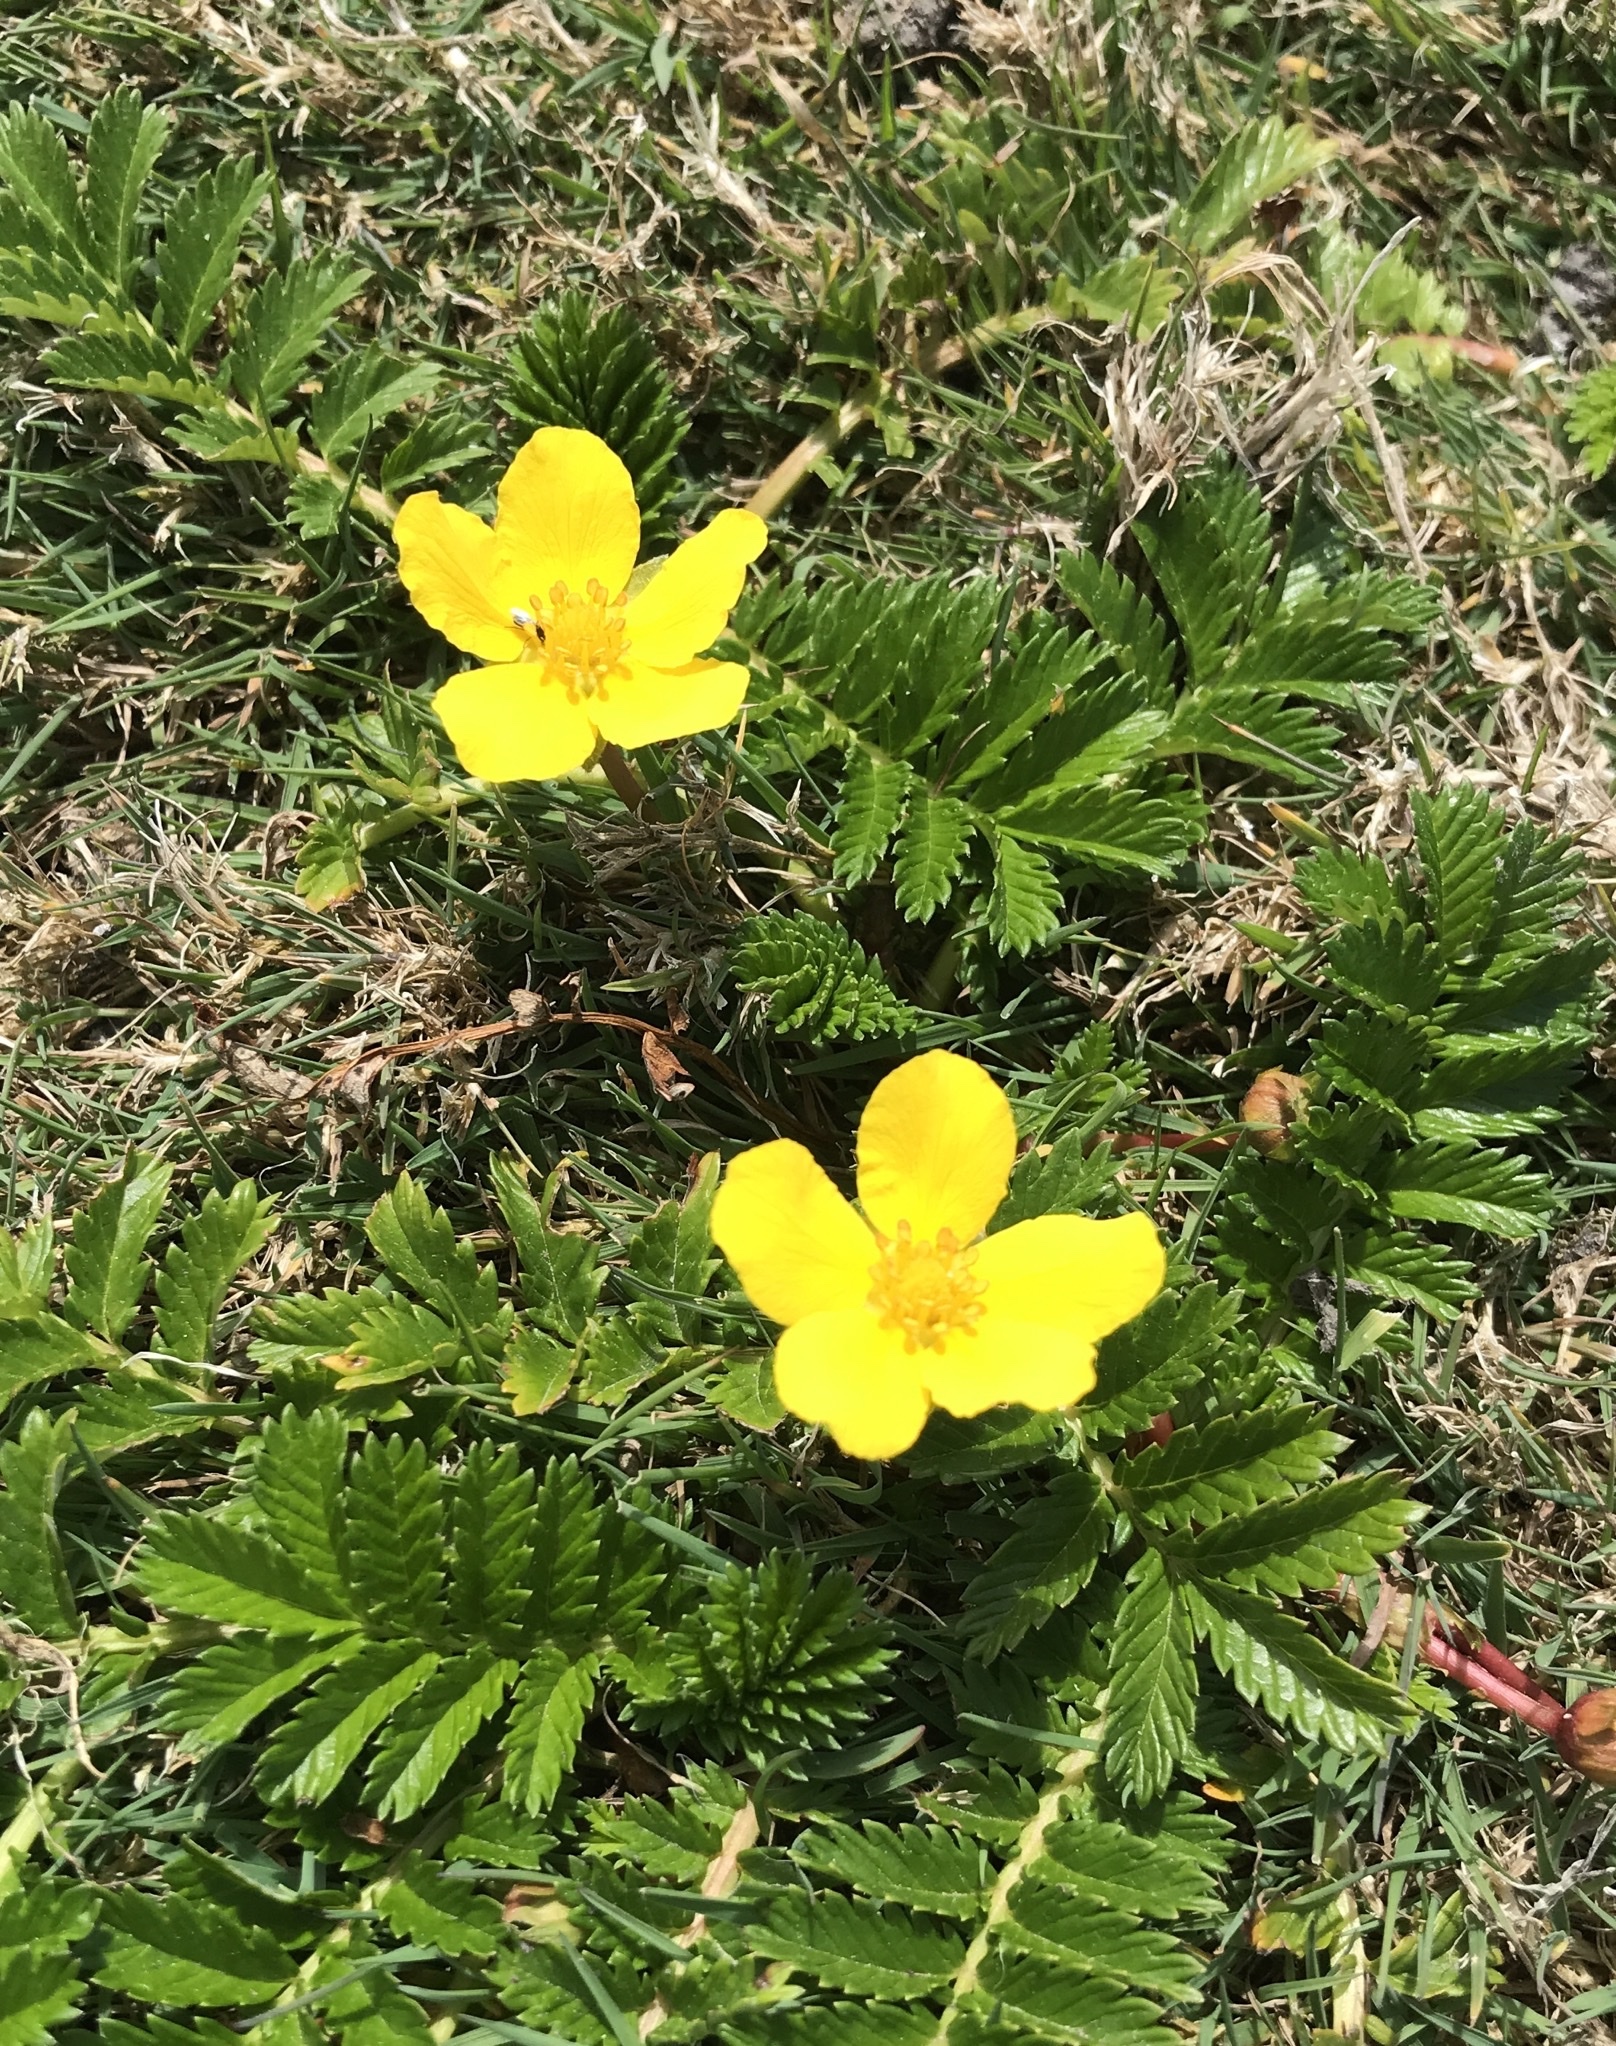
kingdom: Plantae
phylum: Tracheophyta
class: Magnoliopsida
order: Rosales
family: Rosaceae
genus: Argentina
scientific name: Argentina anserina
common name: Common silverweed
